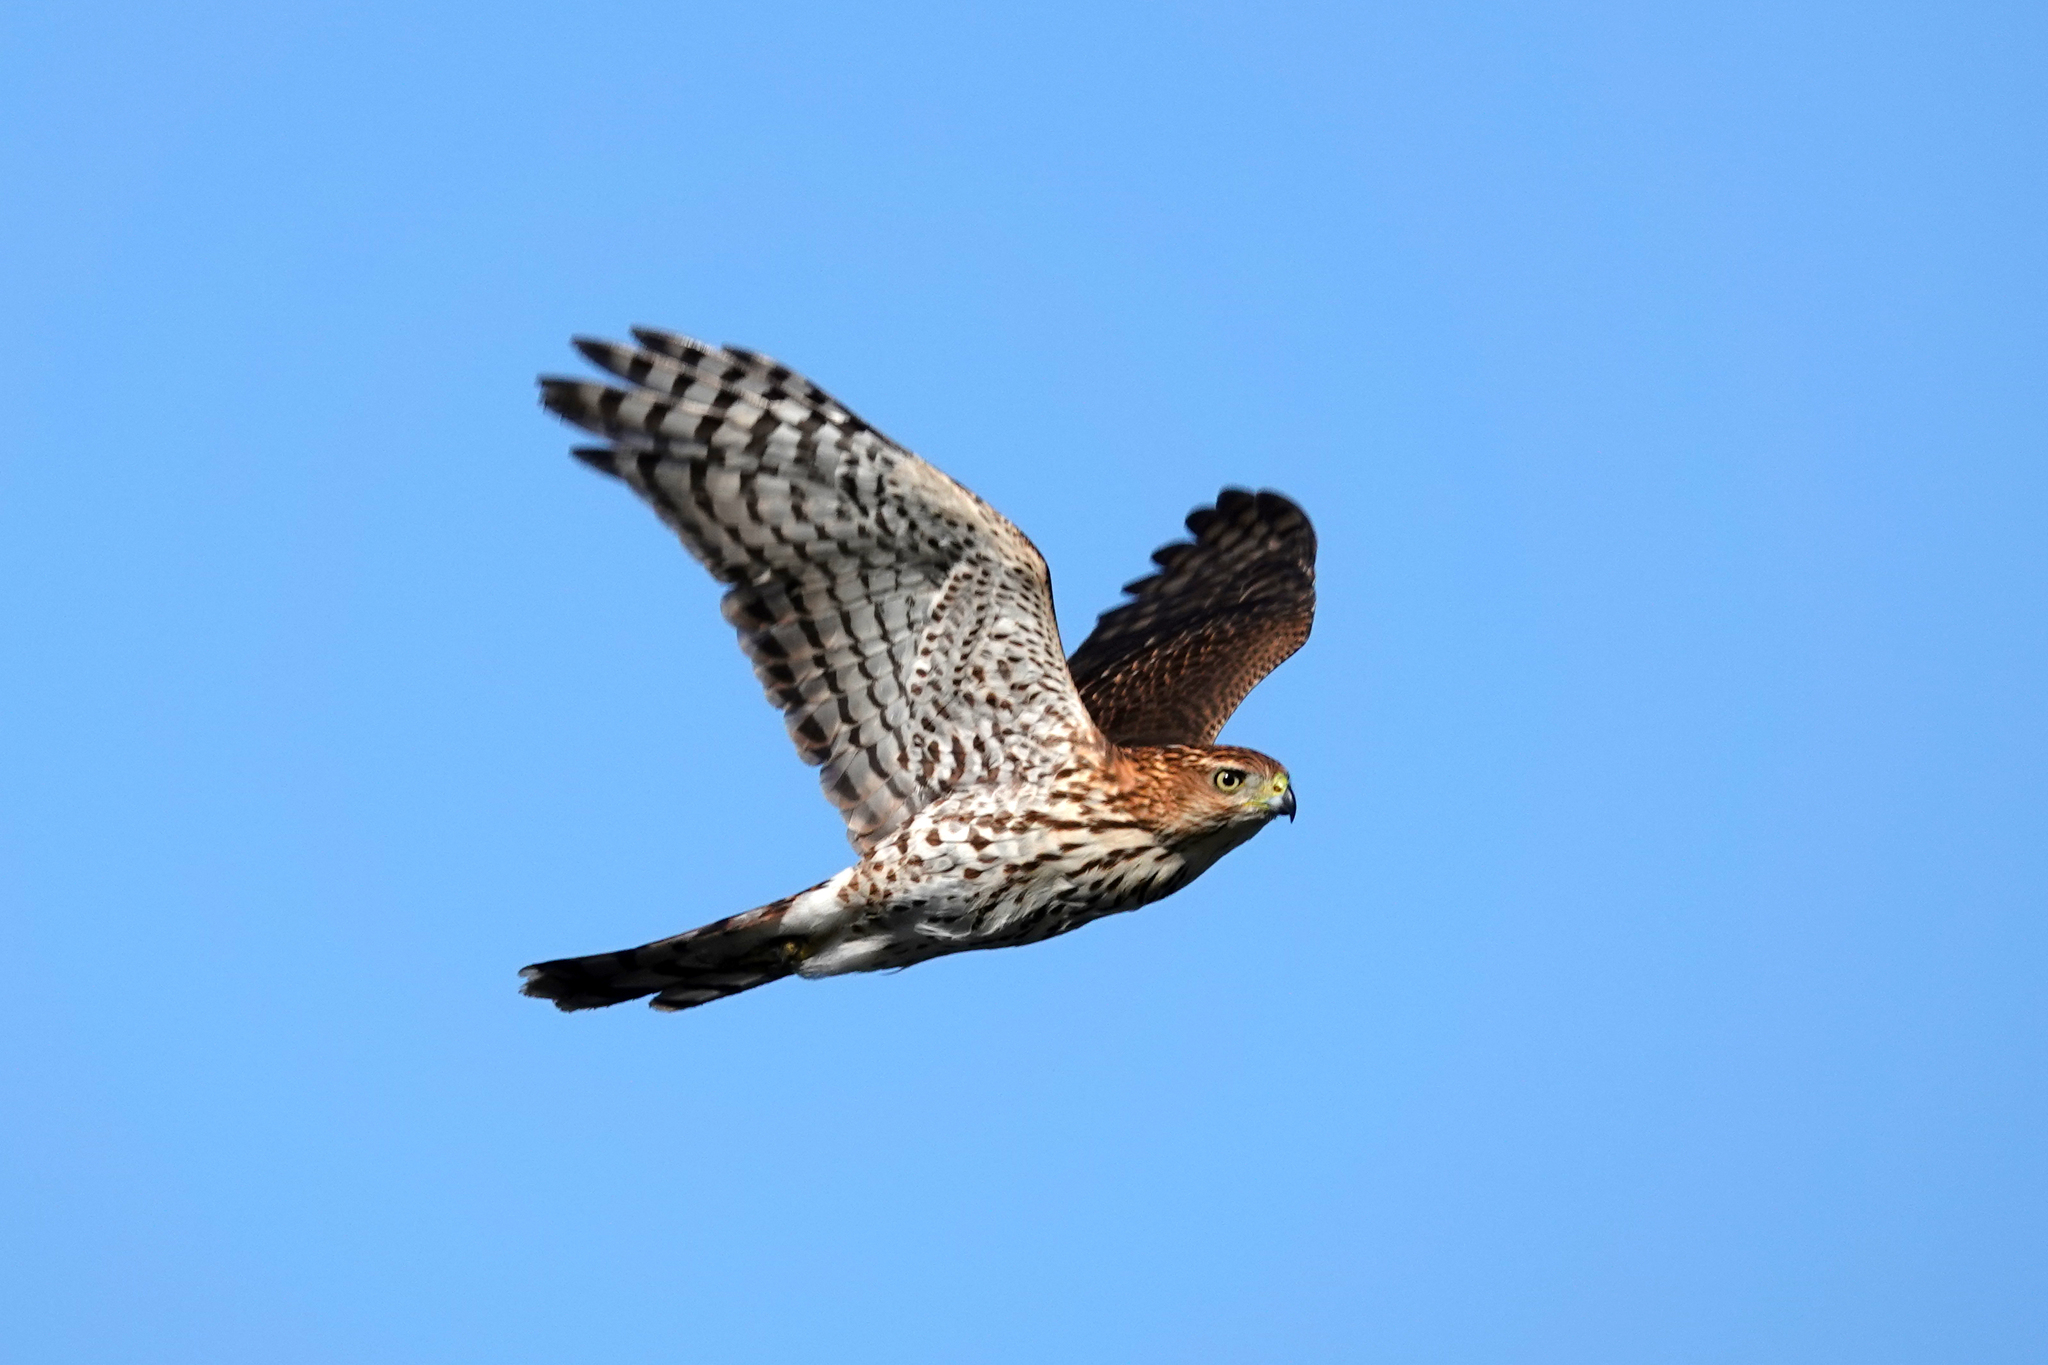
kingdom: Animalia
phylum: Chordata
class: Aves
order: Accipitriformes
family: Accipitridae
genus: Accipiter
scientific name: Accipiter cooperii
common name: Cooper's hawk
